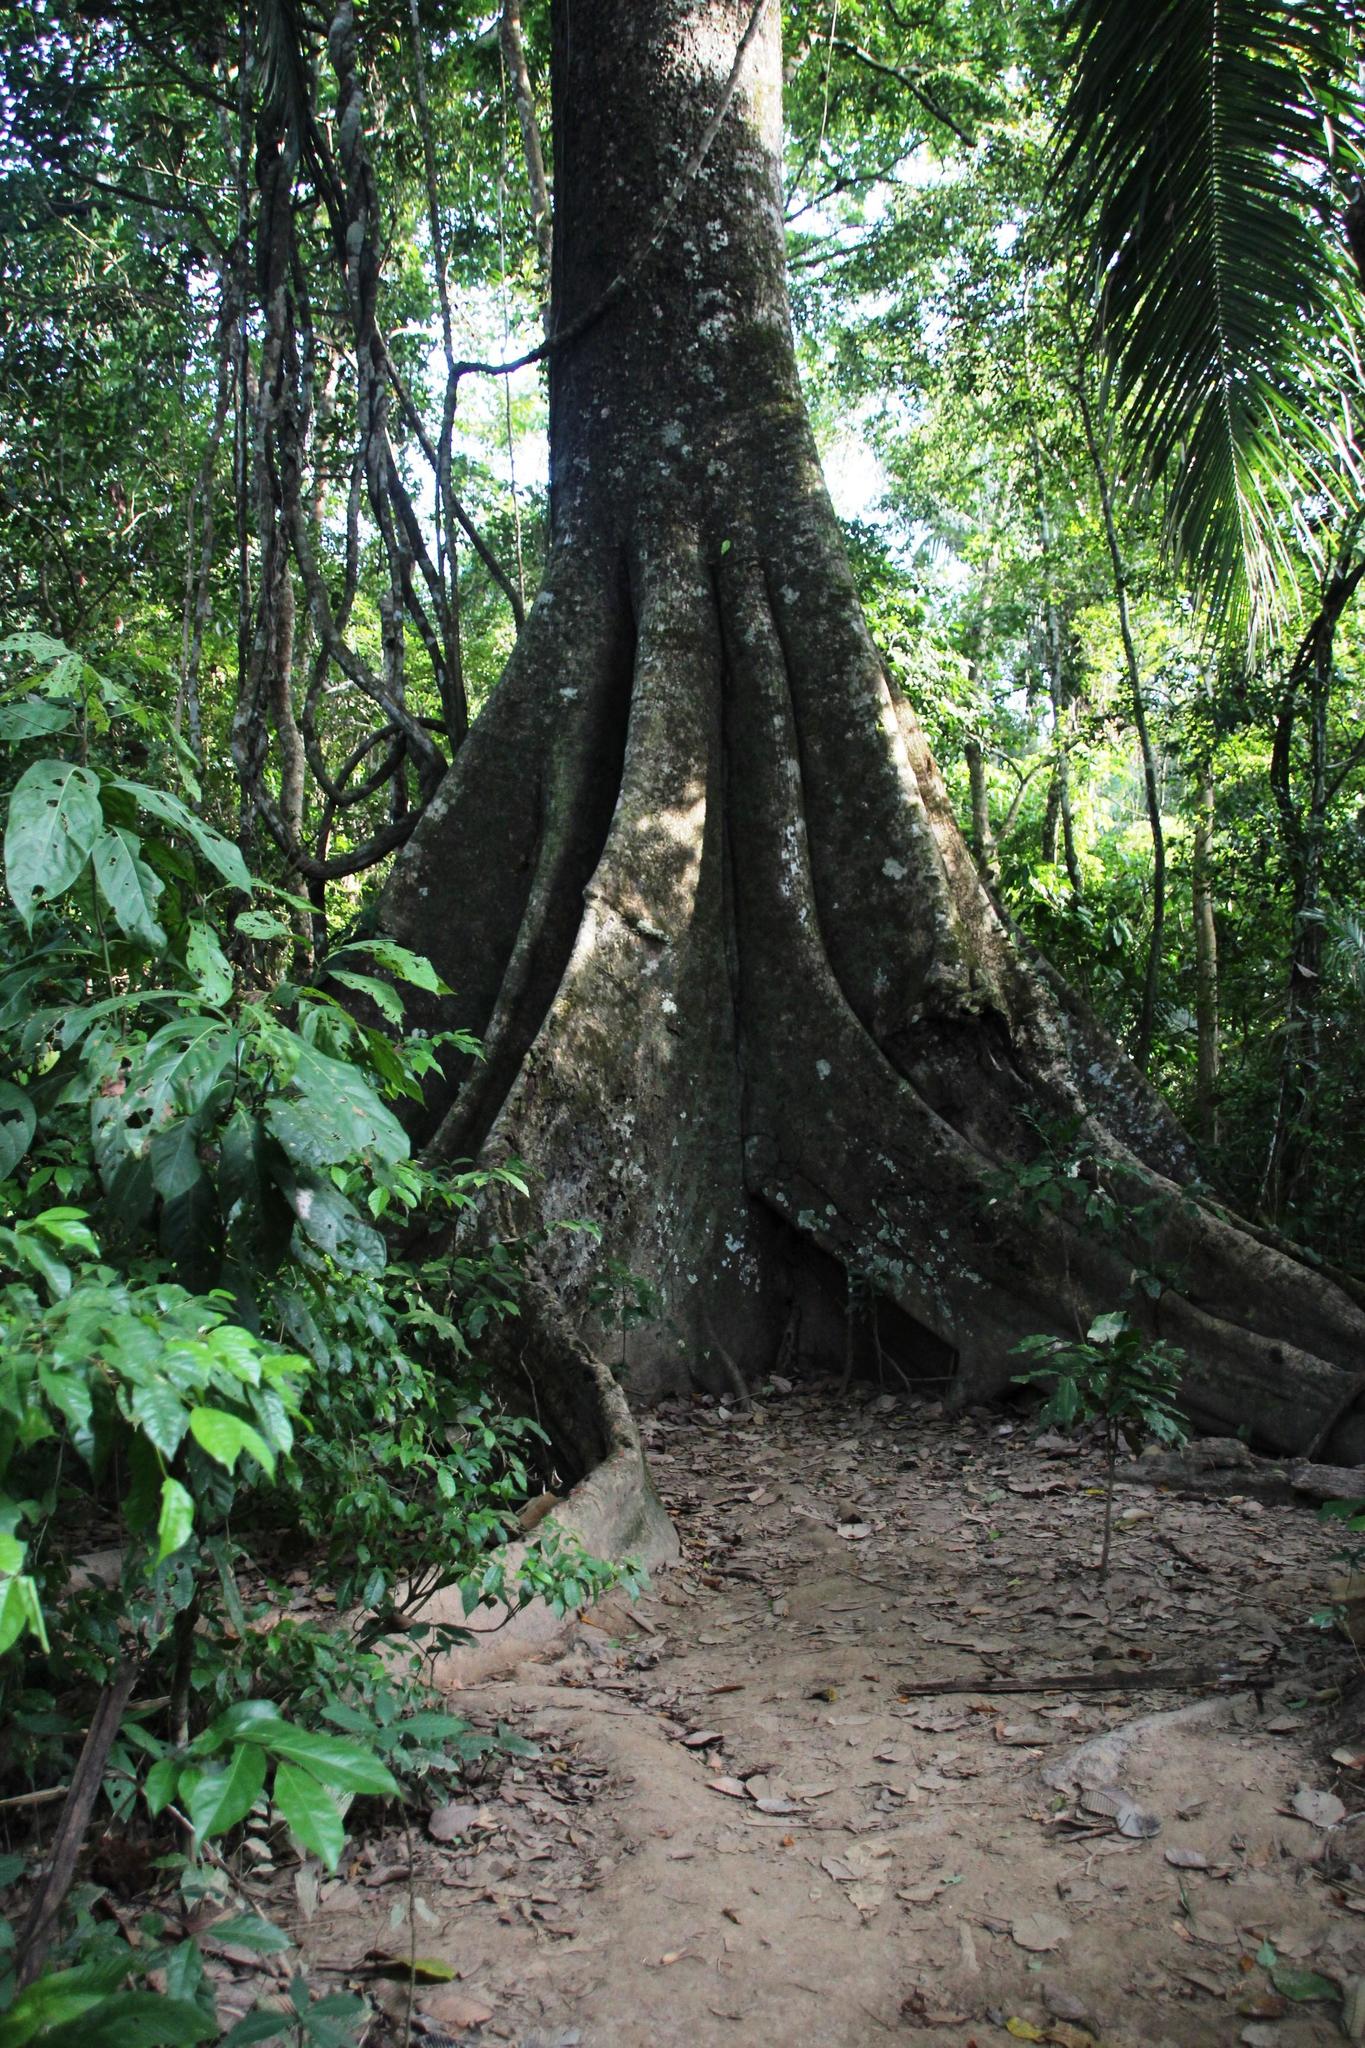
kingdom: Plantae
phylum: Tracheophyta
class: Magnoliopsida
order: Rosales
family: Moraceae
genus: Ficus
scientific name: Ficus macbridei
